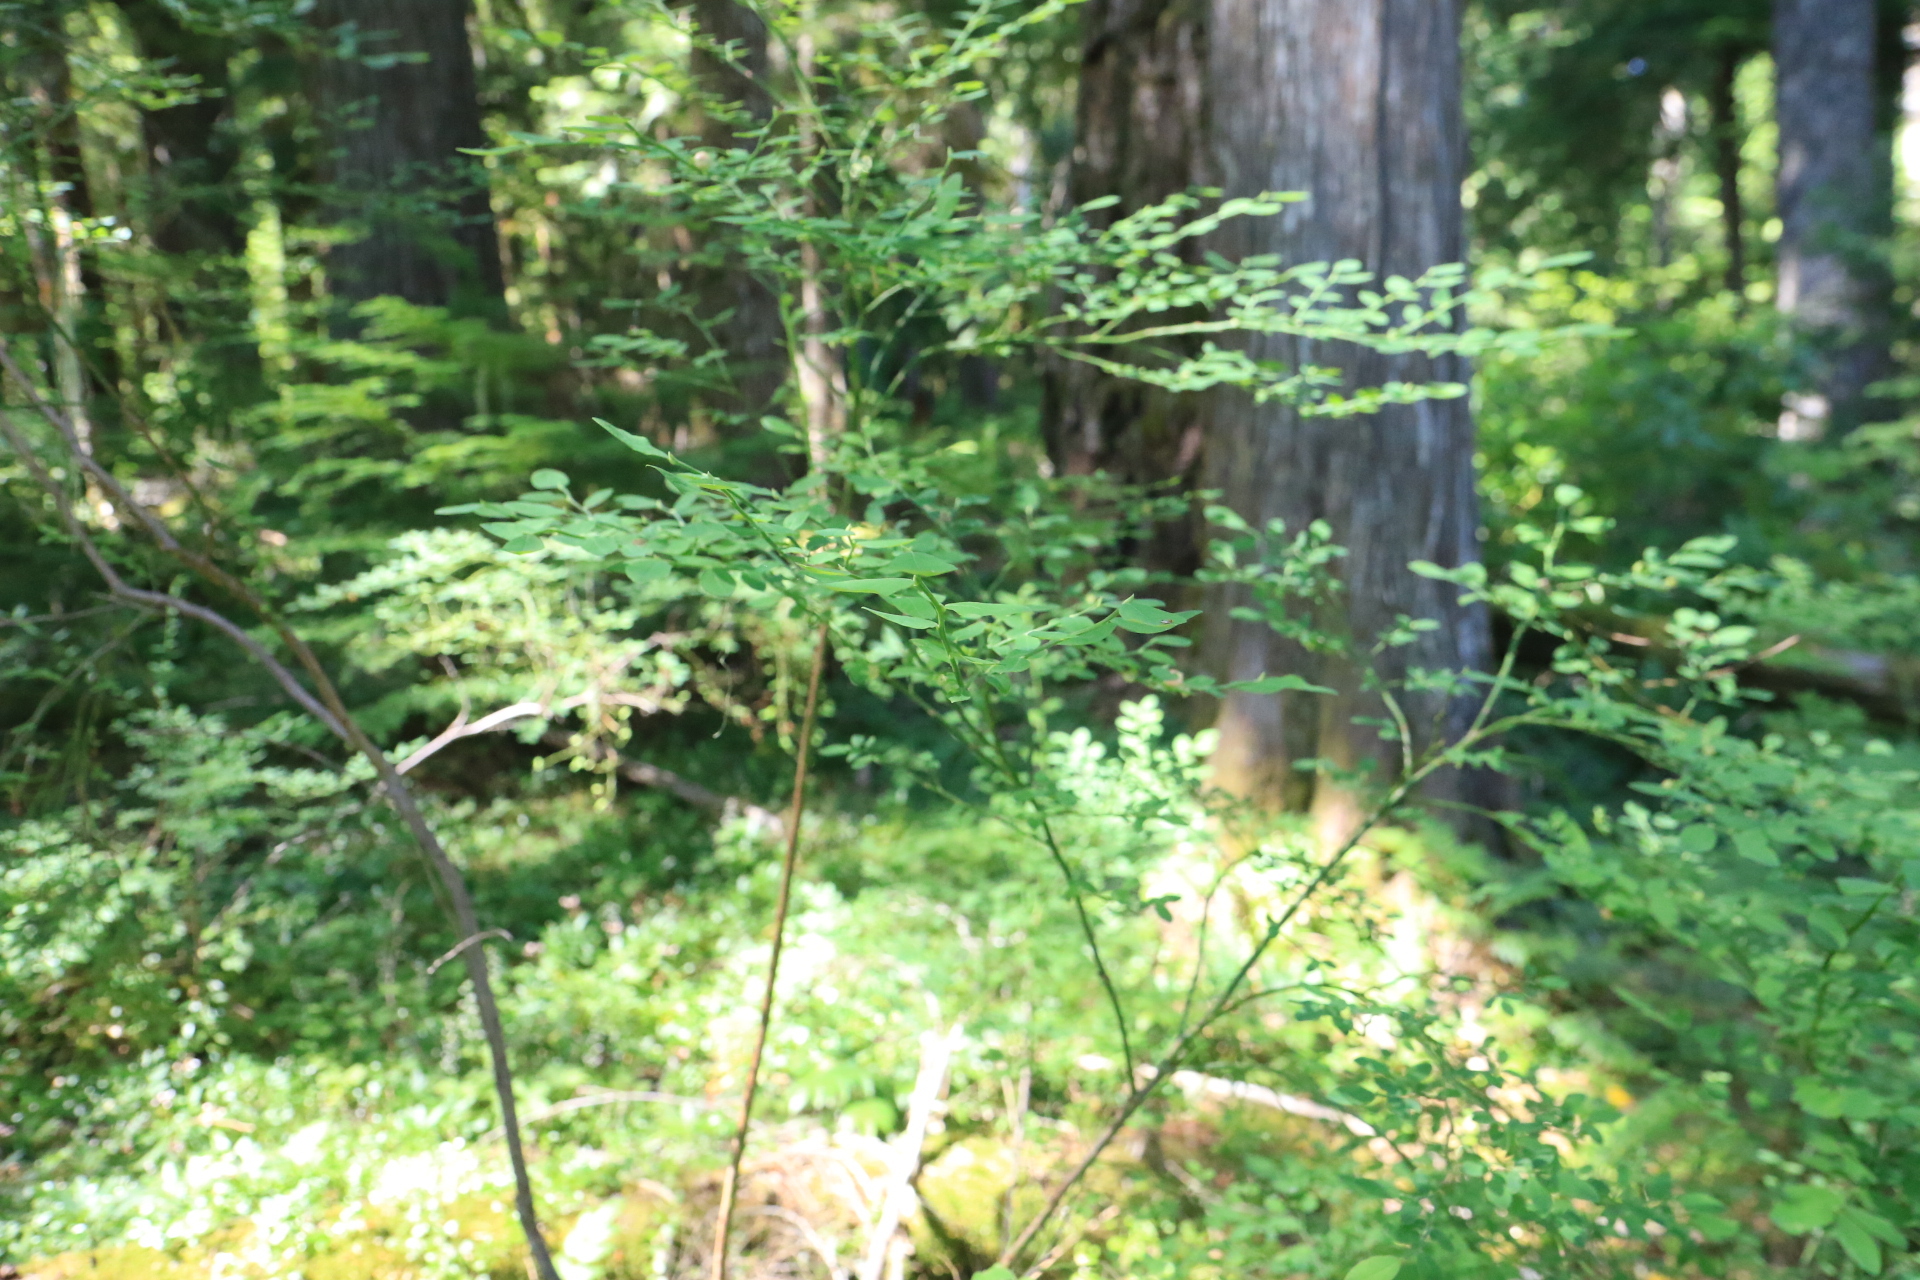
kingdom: Plantae
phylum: Tracheophyta
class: Magnoliopsida
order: Ericales
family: Ericaceae
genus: Vaccinium
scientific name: Vaccinium parvifolium
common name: Red-huckleberry
